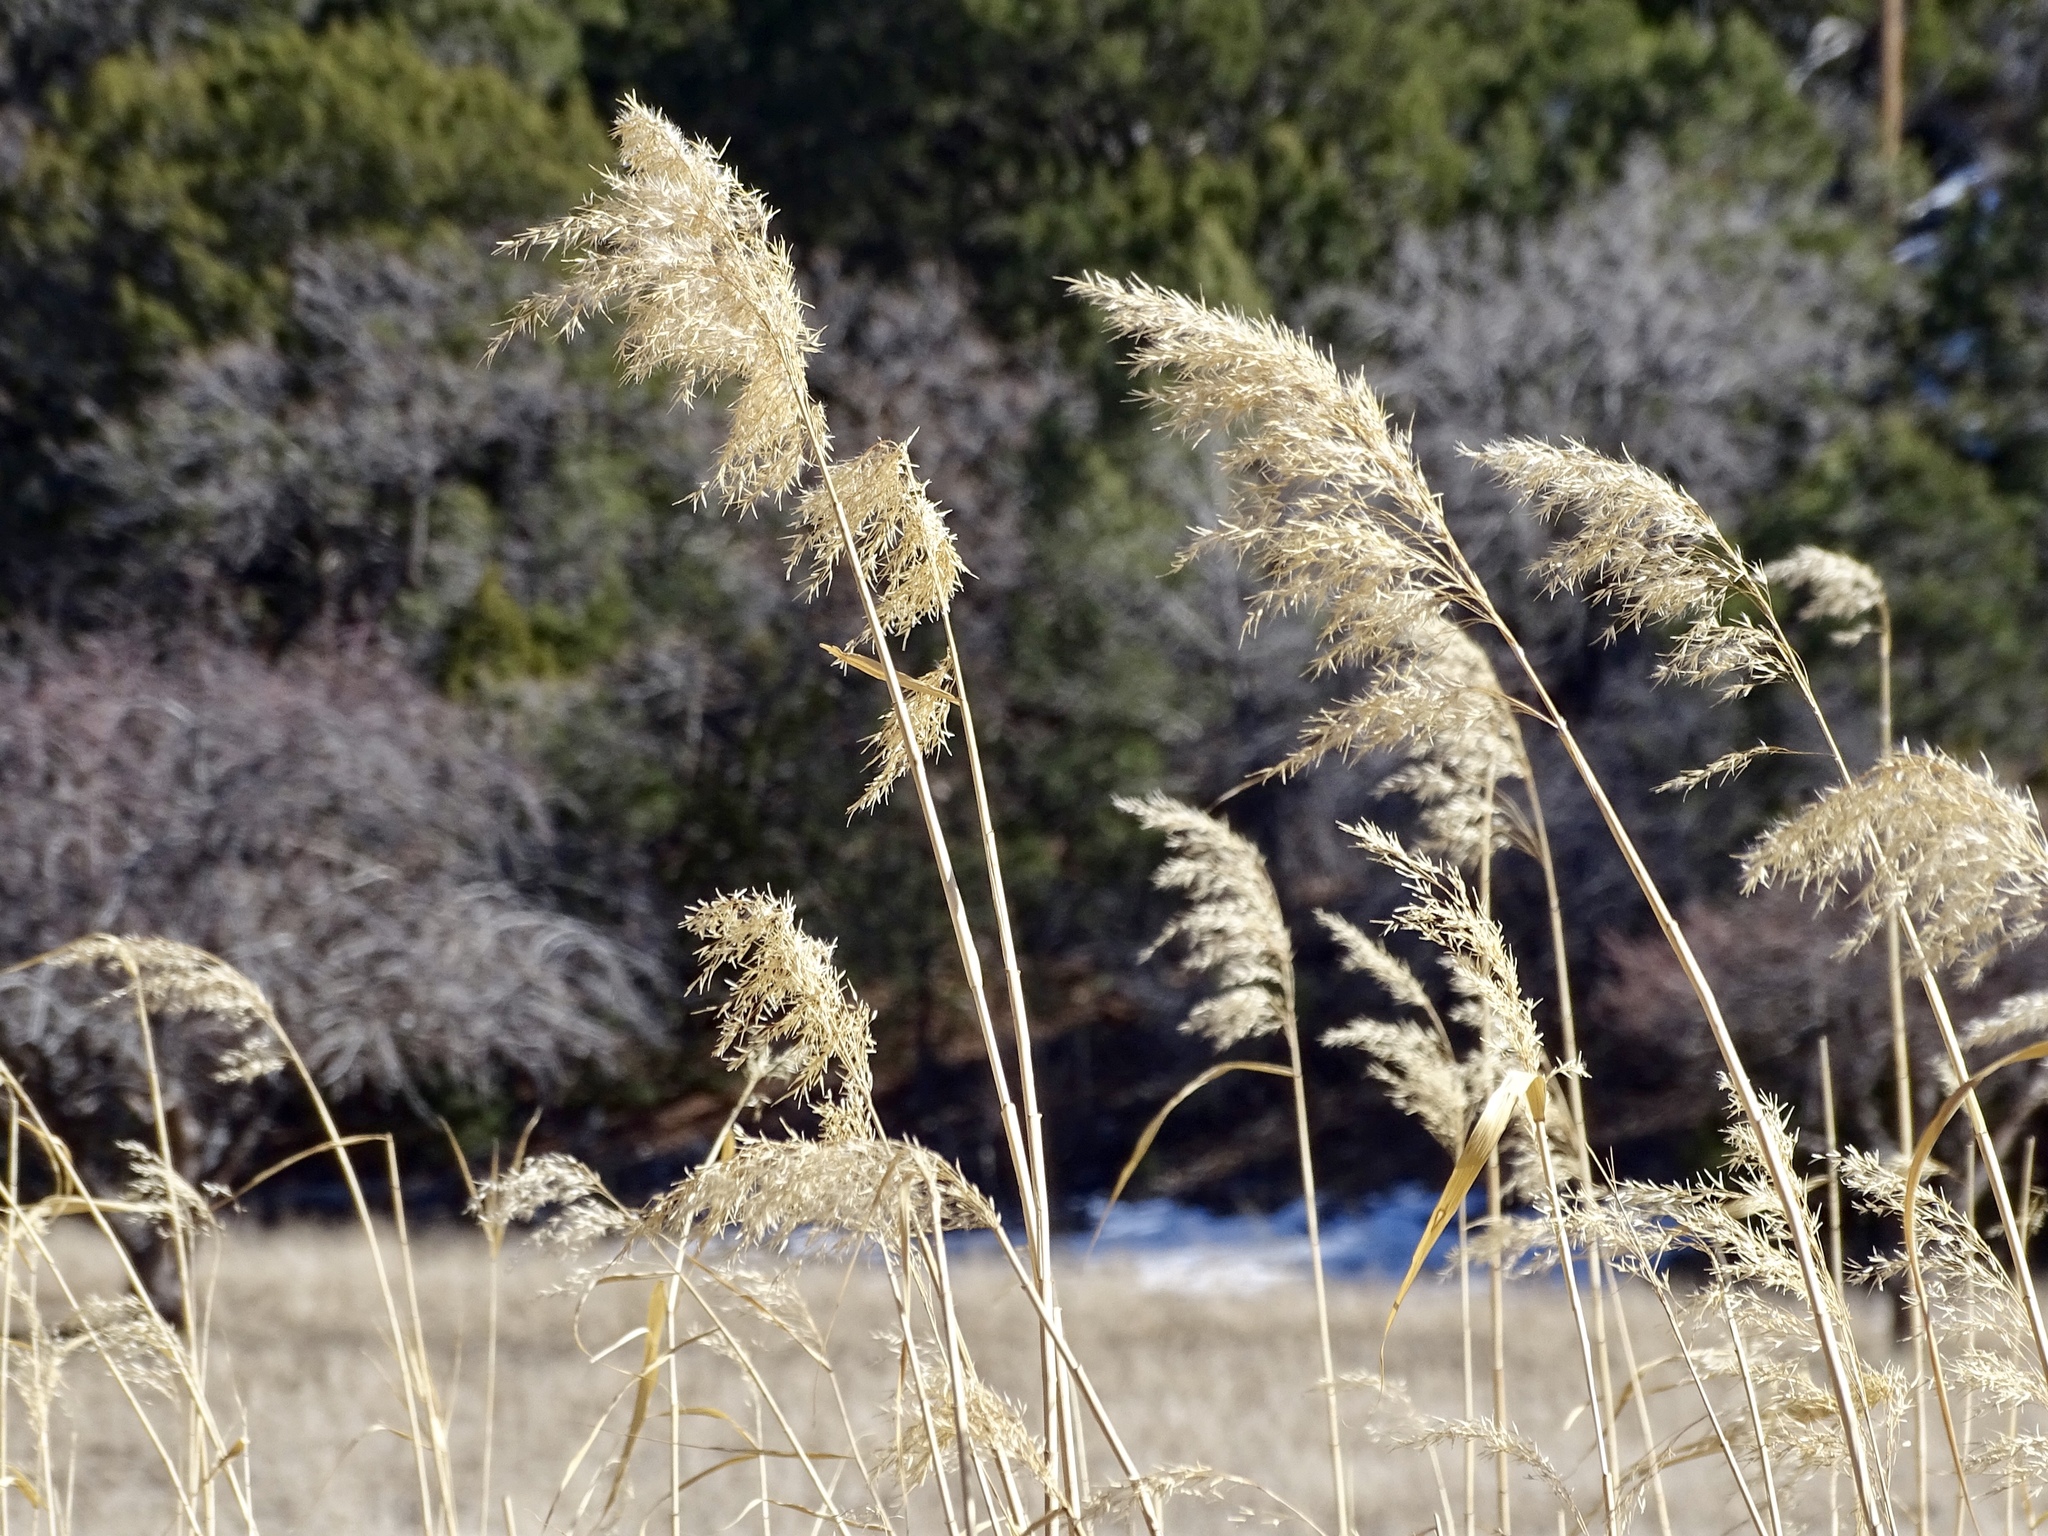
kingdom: Plantae
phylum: Tracheophyta
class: Liliopsida
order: Poales
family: Poaceae
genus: Phragmites
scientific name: Phragmites australis
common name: Common reed
